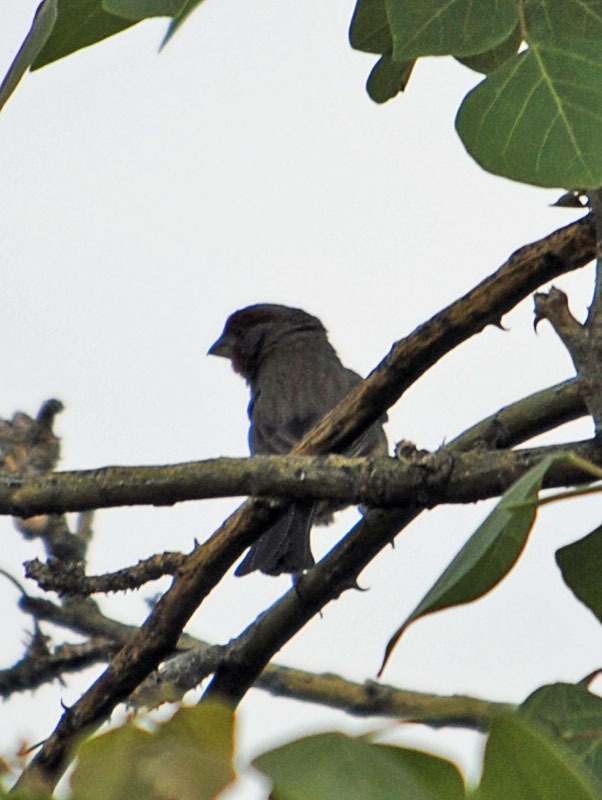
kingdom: Animalia
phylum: Chordata
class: Aves
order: Passeriformes
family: Fringillidae
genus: Haemorhous
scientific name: Haemorhous mexicanus
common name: House finch
